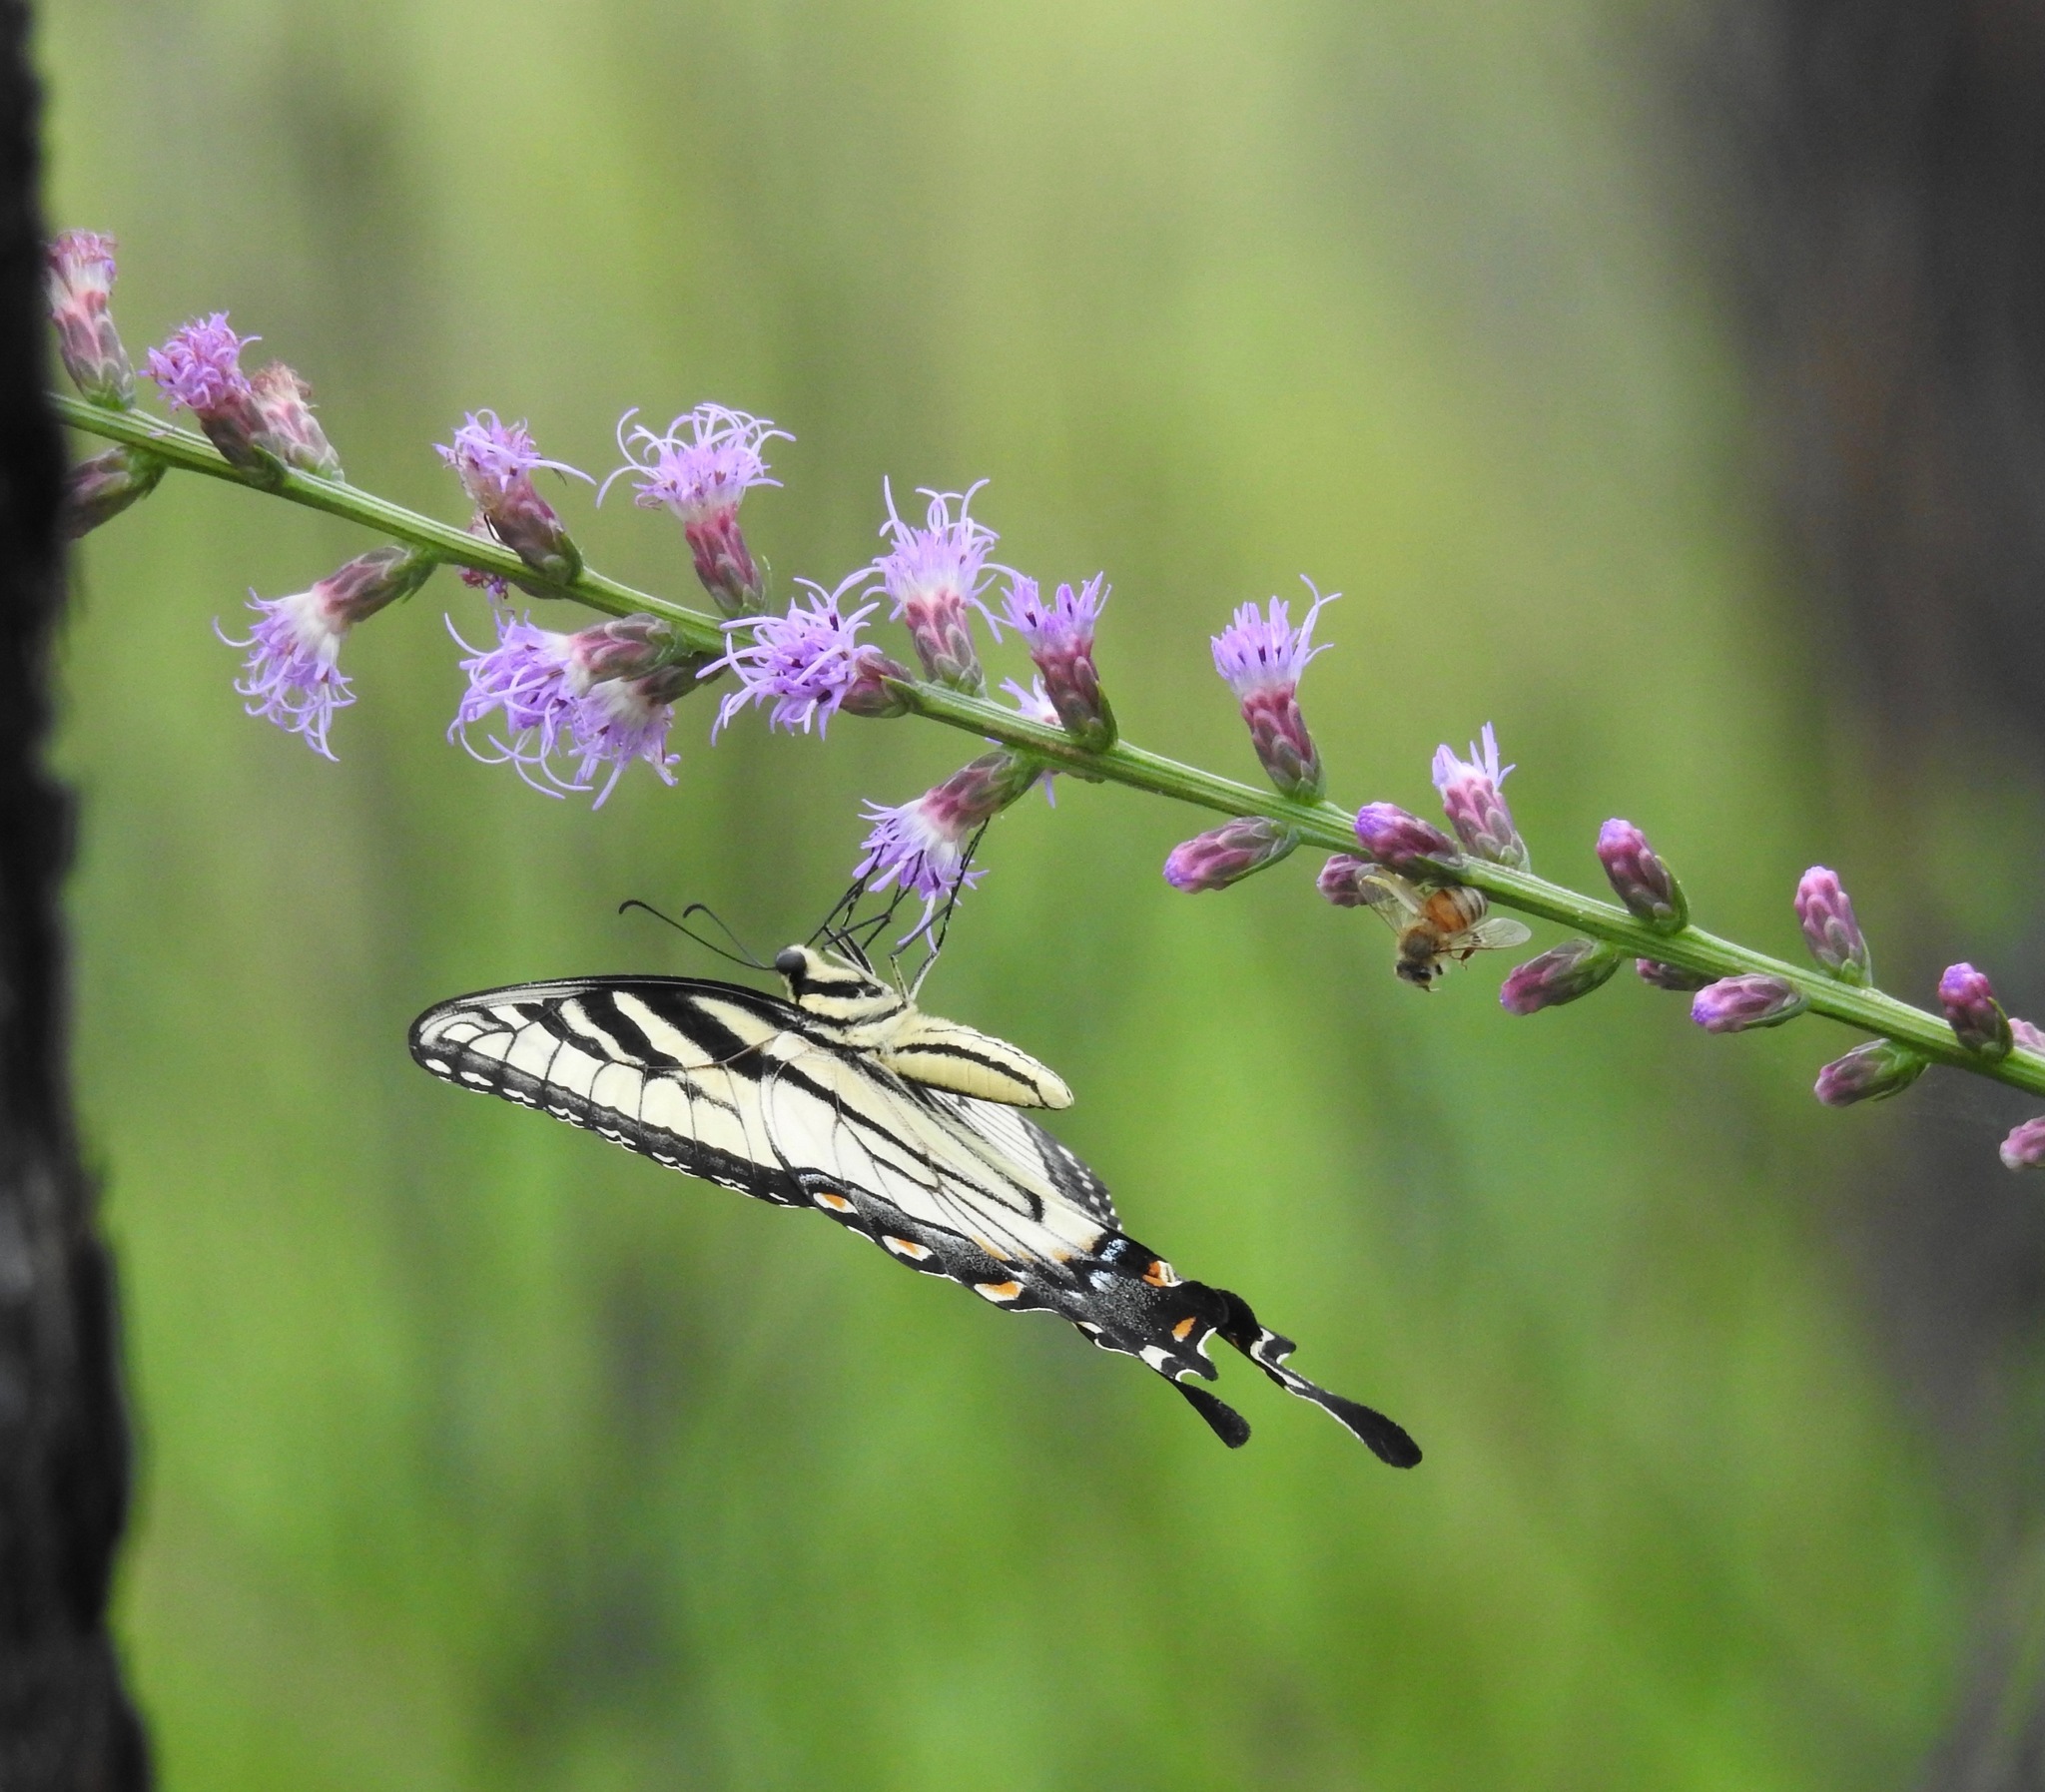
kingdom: Animalia
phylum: Arthropoda
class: Insecta
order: Lepidoptera
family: Papilionidae
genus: Papilio
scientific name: Papilio glaucus
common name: Tiger swallowtail
